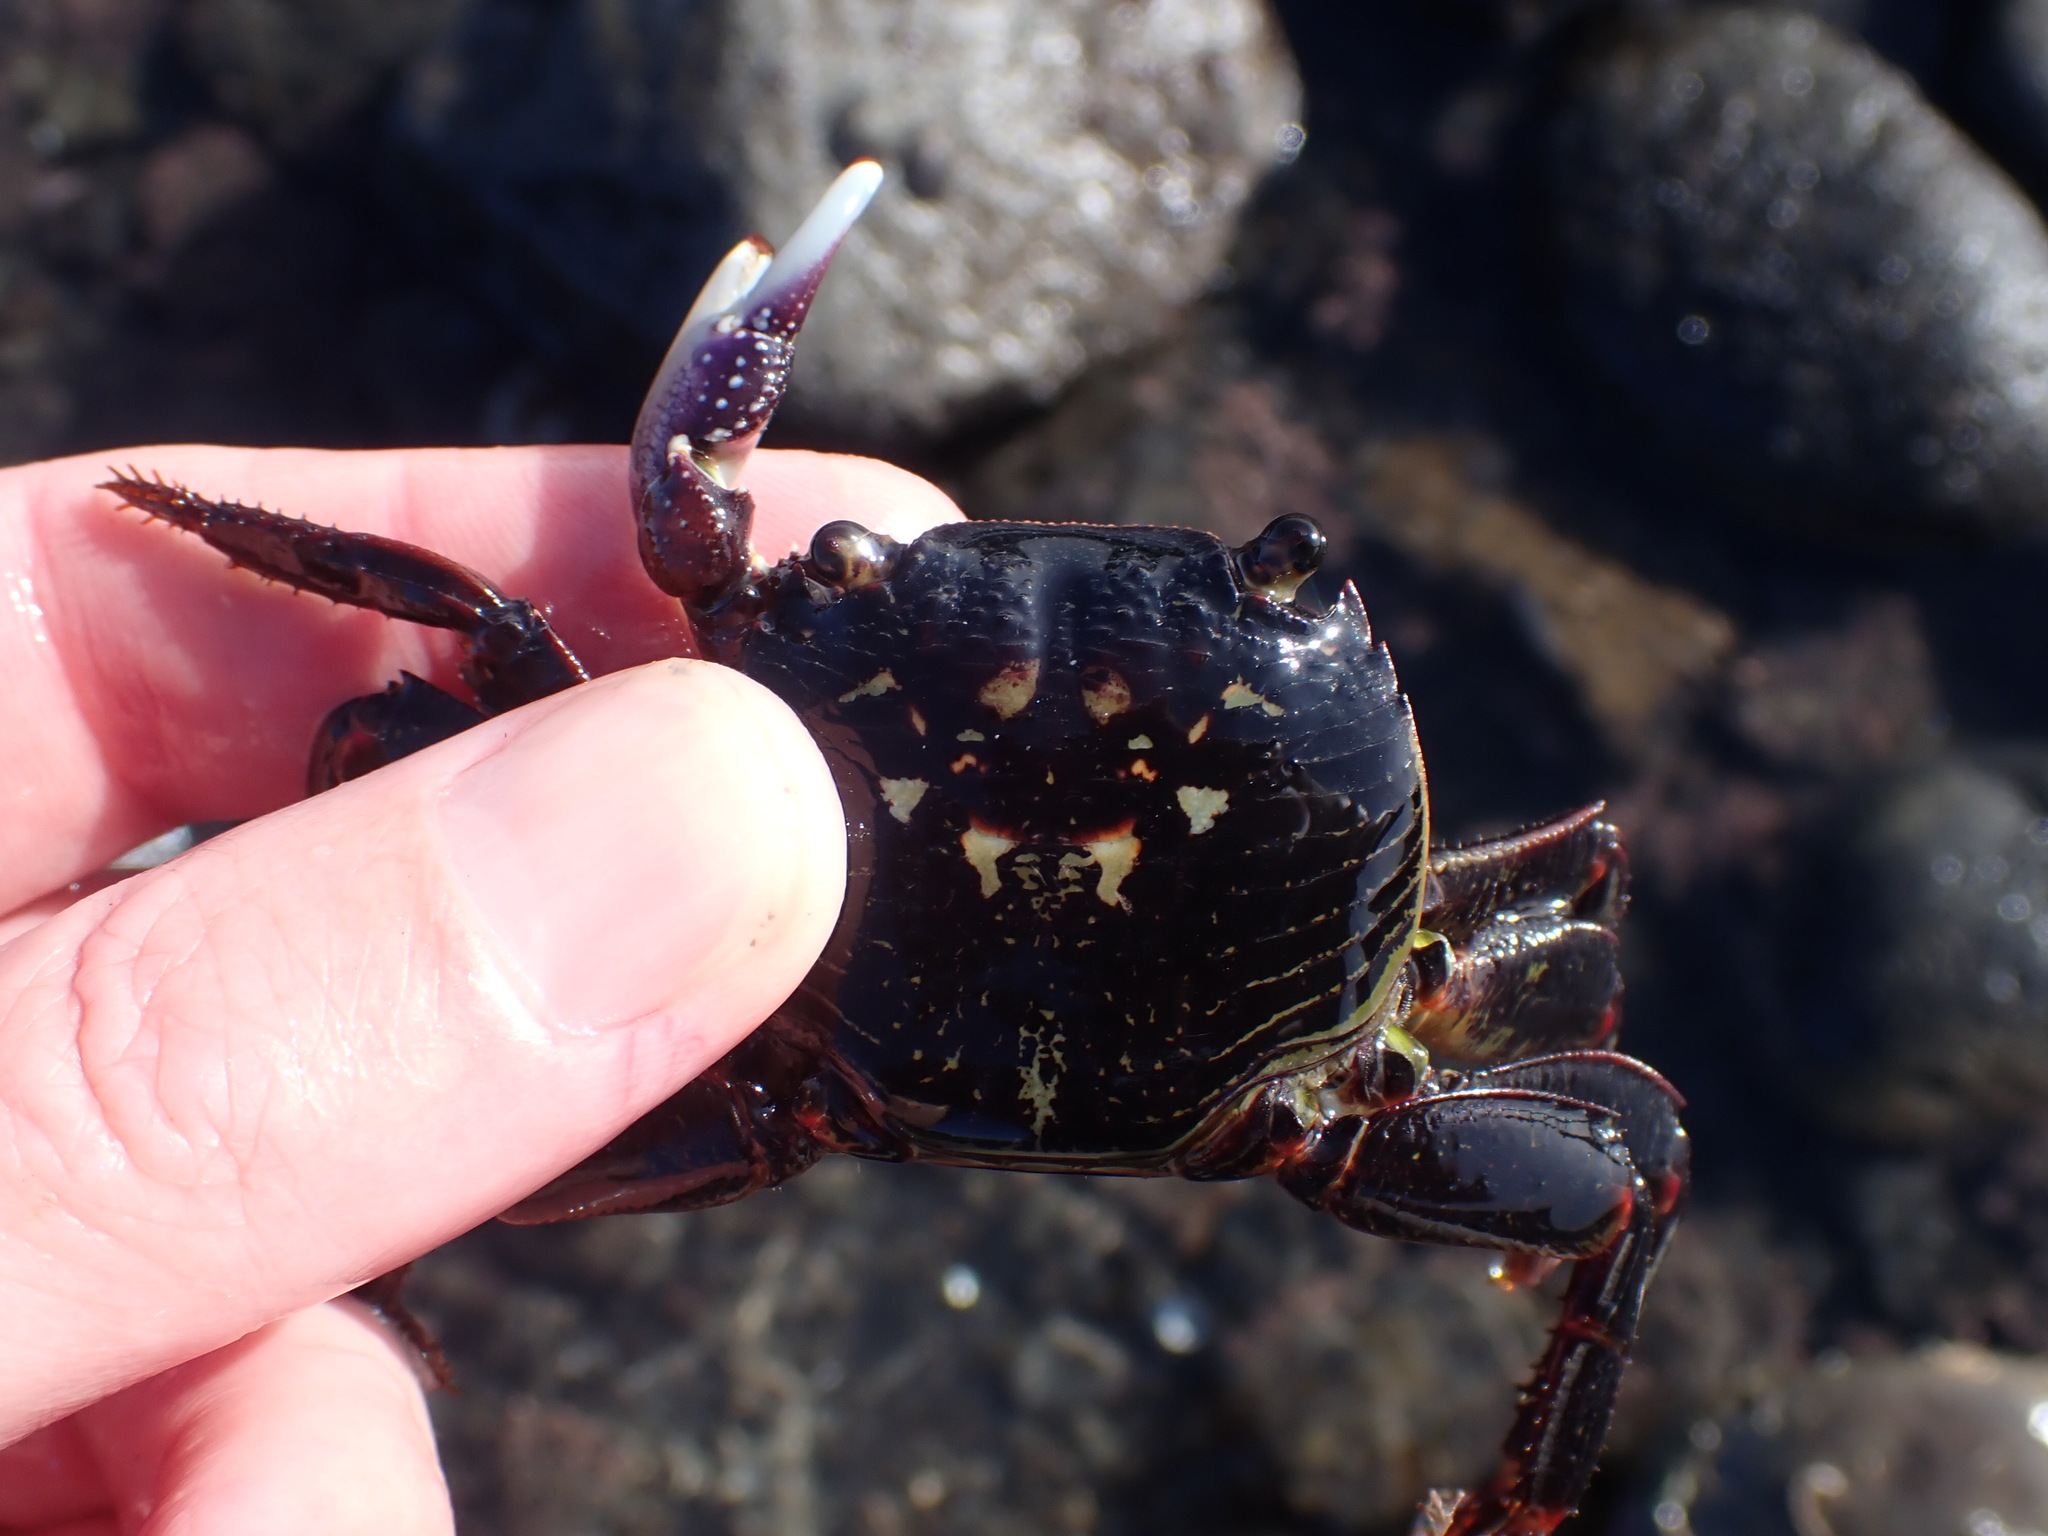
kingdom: Animalia
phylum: Arthropoda
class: Malacostraca
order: Decapoda
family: Grapsidae
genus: Leptograpsus
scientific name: Leptograpsus variegatus
